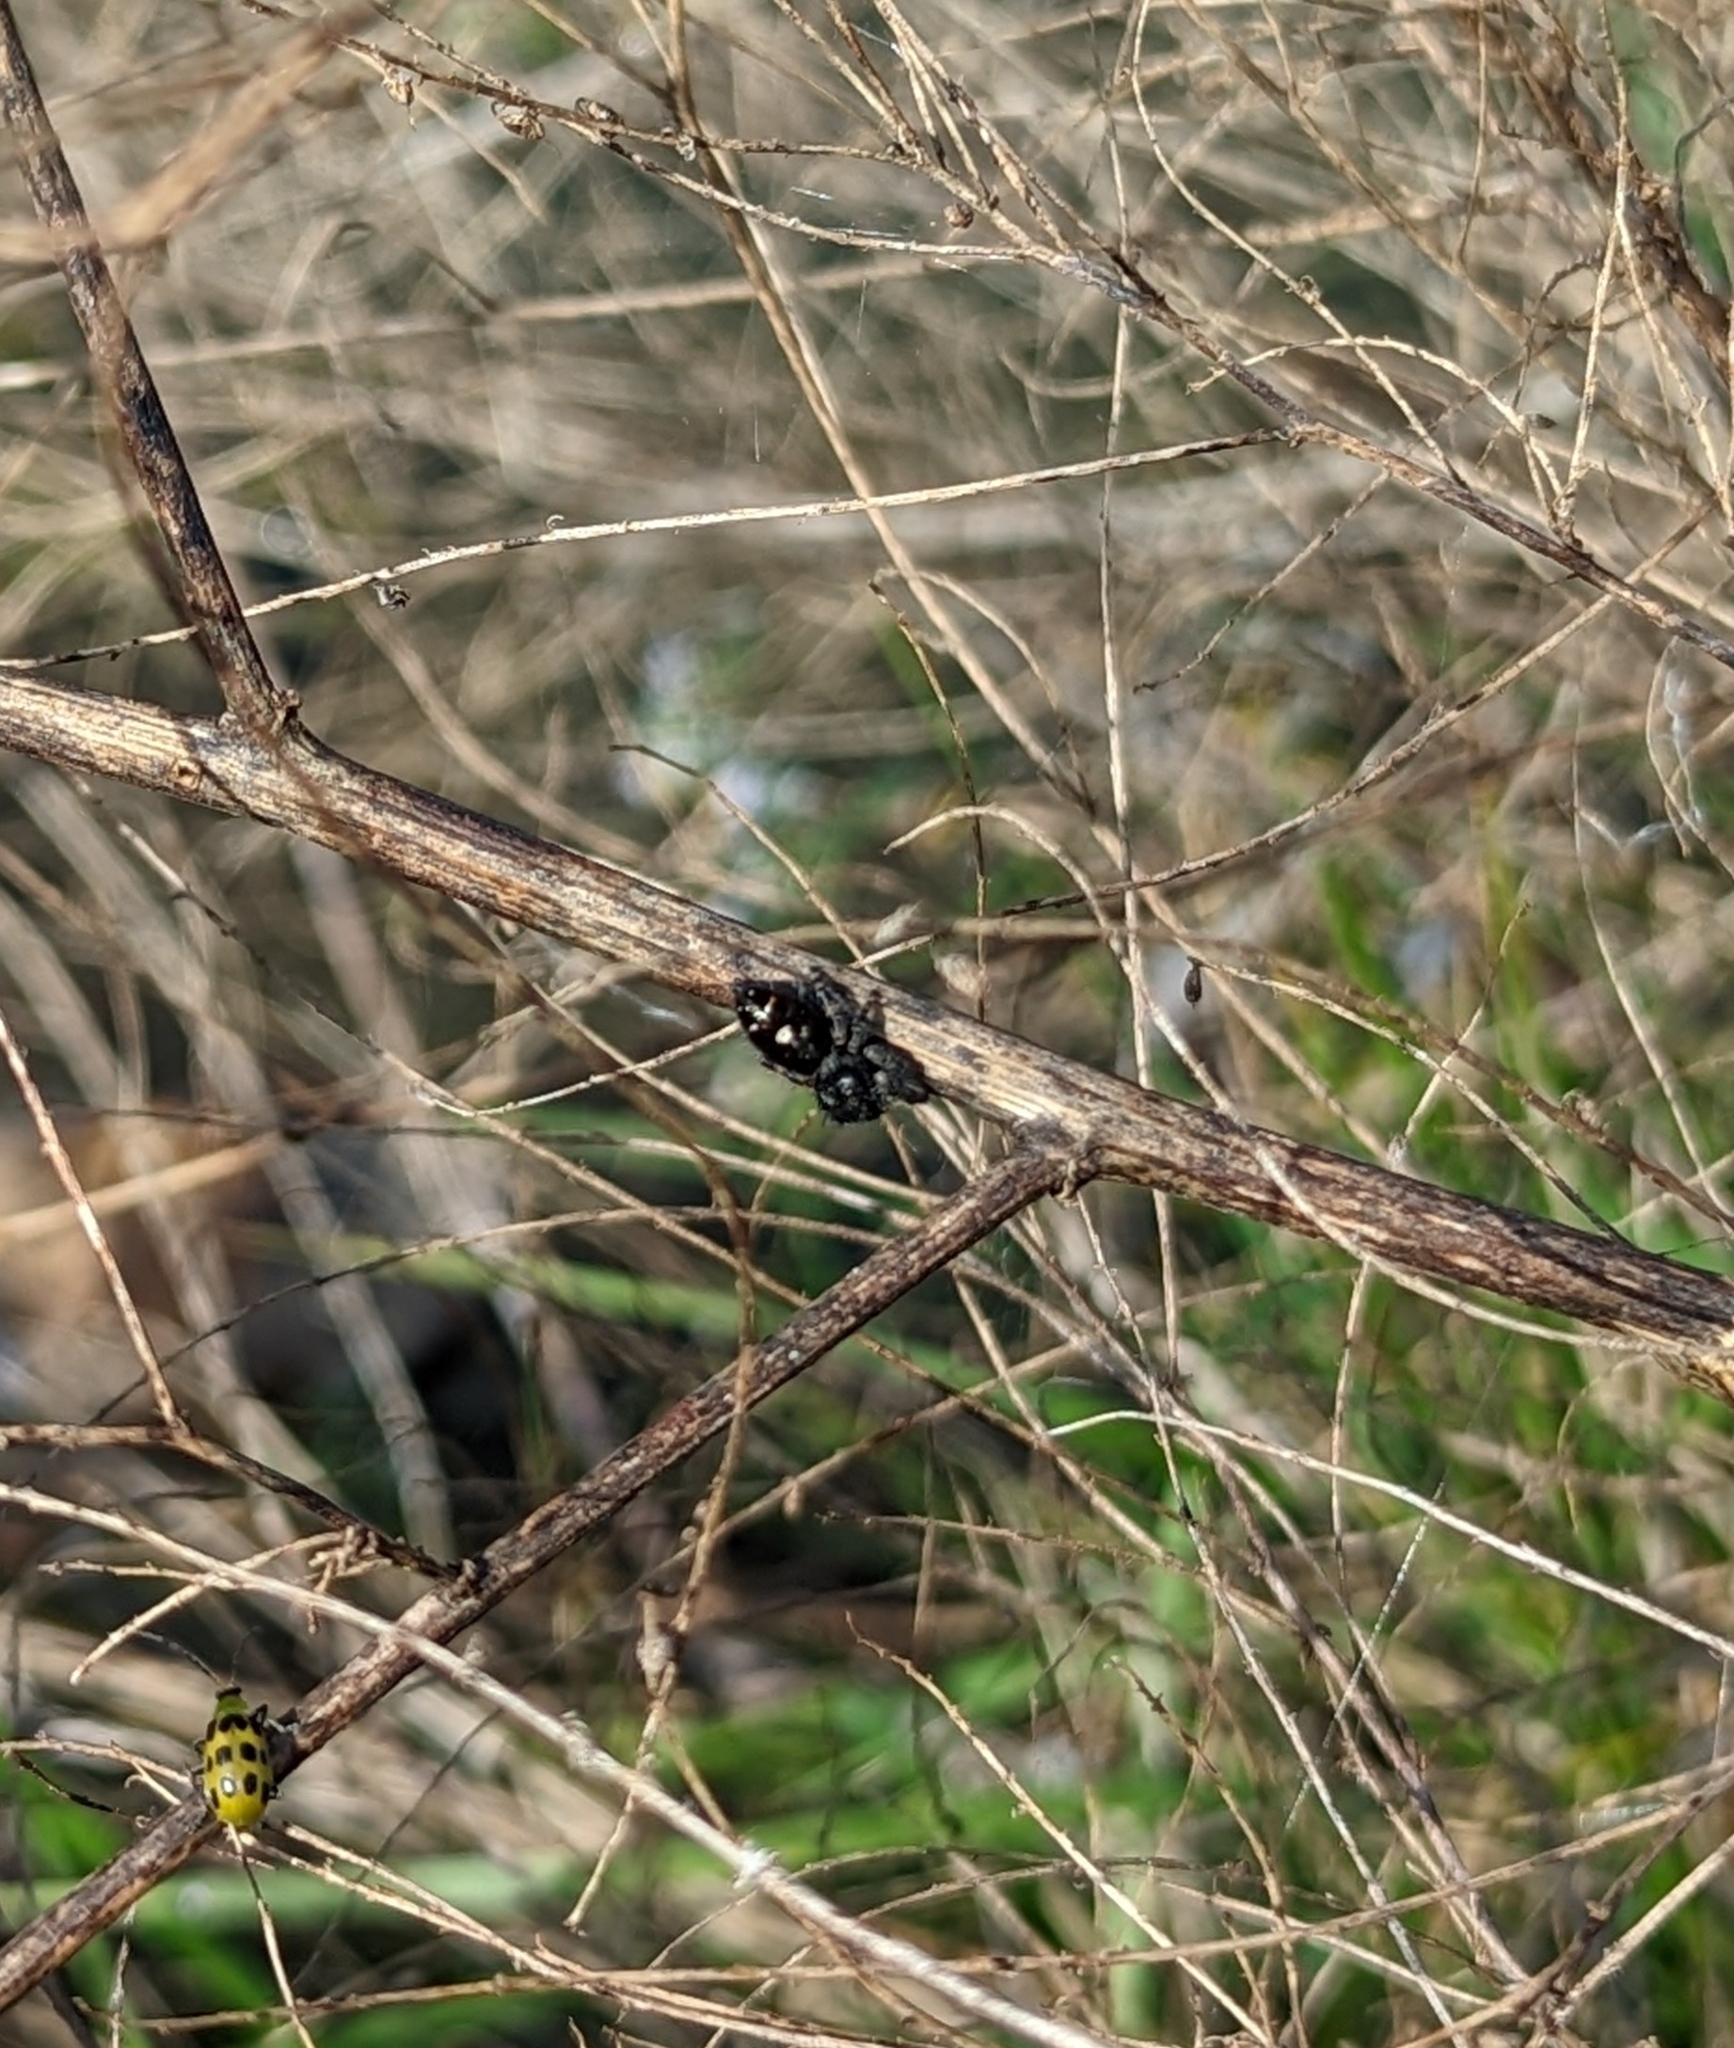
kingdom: Animalia
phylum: Arthropoda
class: Arachnida
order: Araneae
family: Salticidae
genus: Phidippus
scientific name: Phidippus audax
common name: Bold jumper
